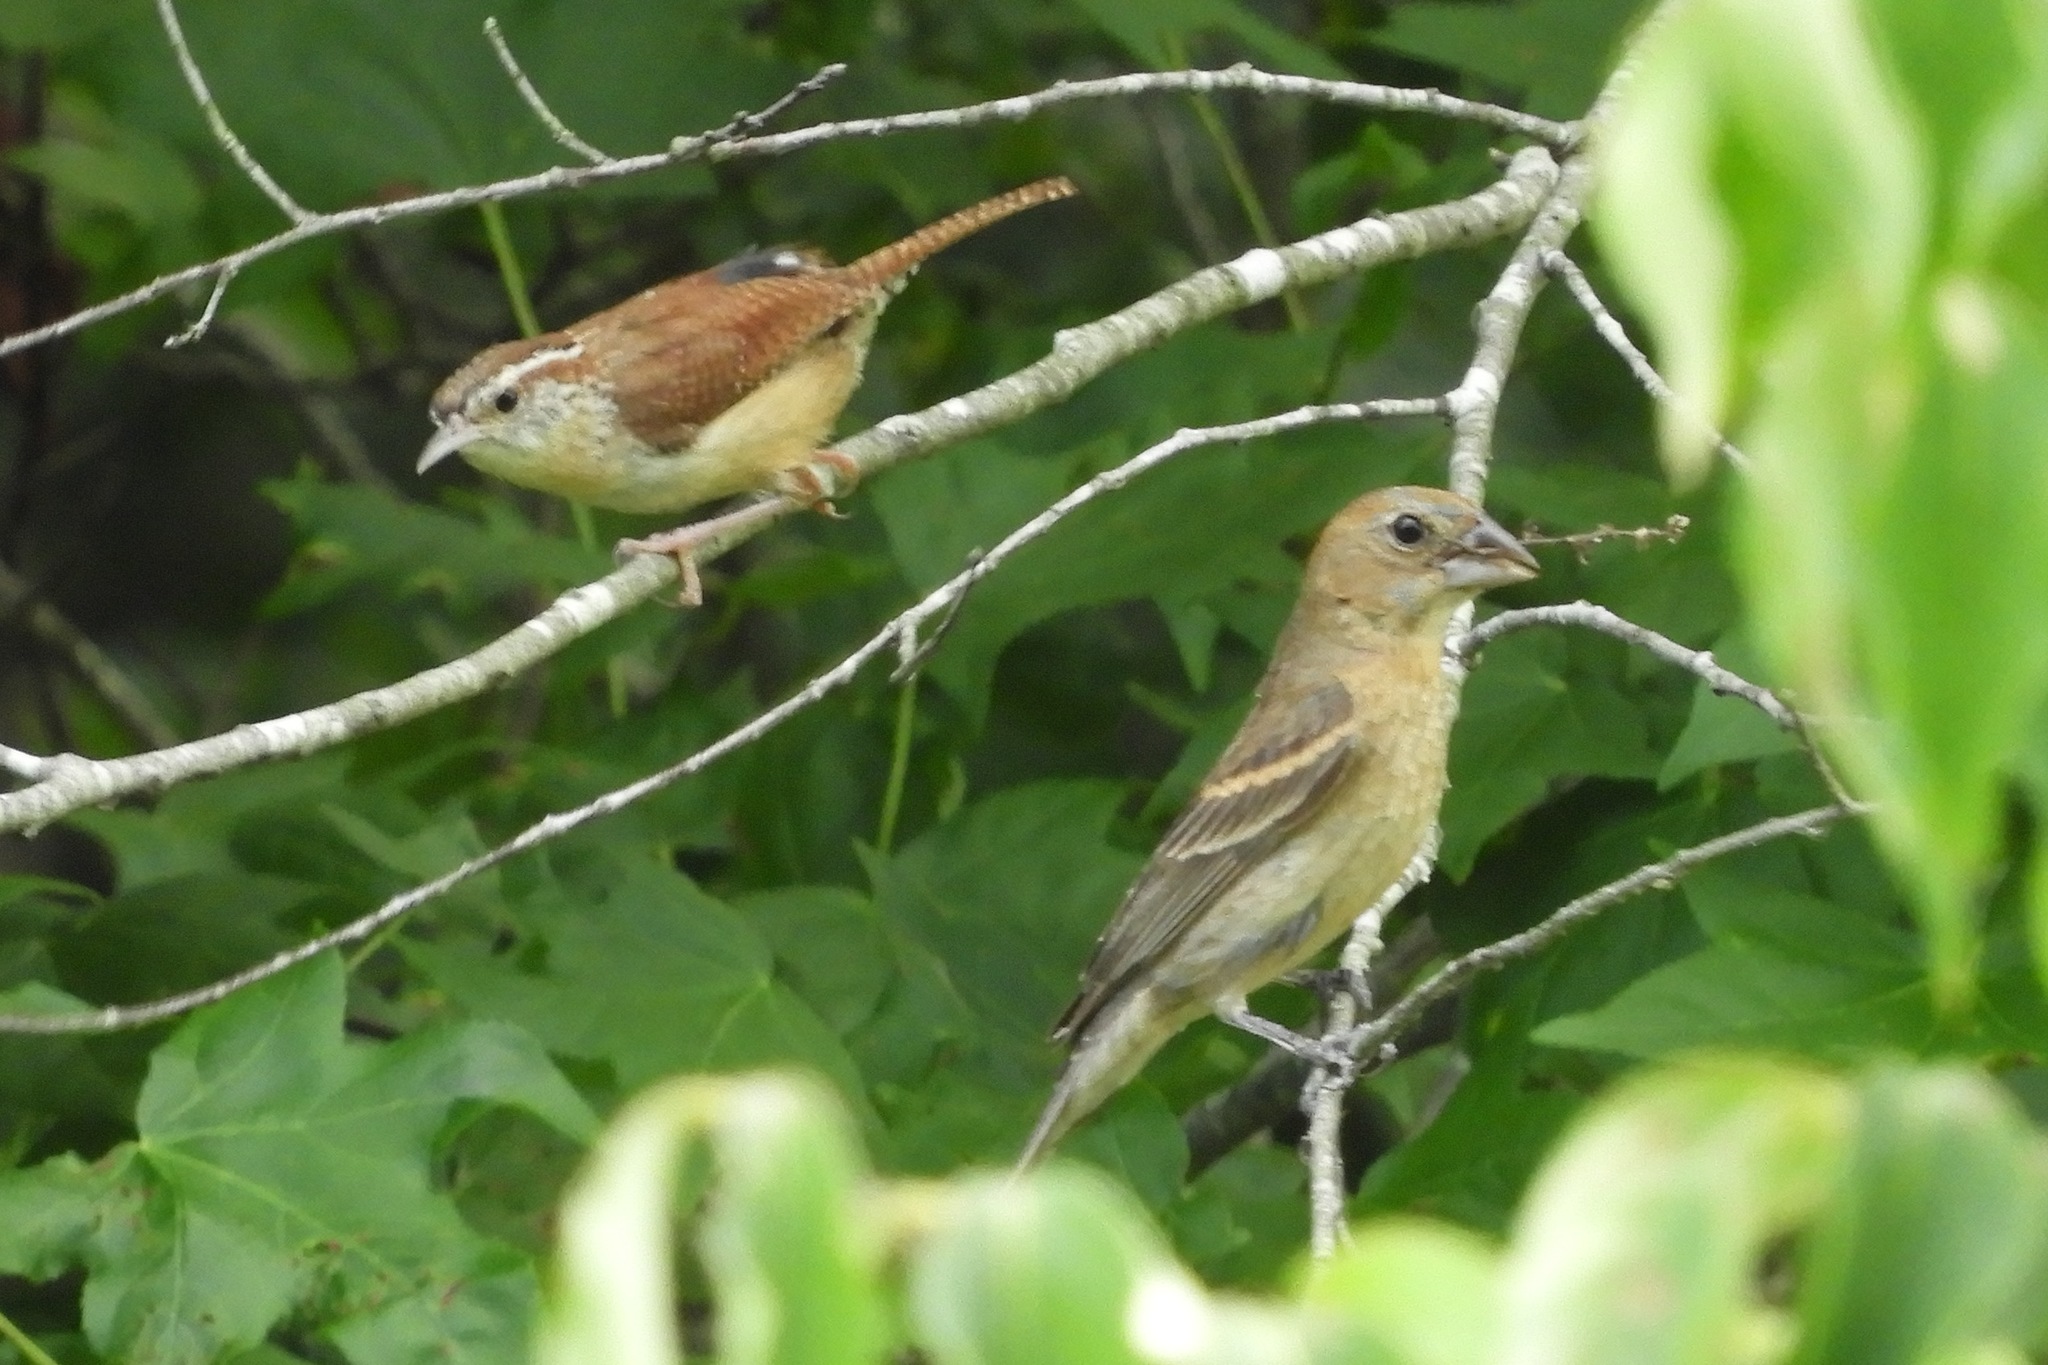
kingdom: Animalia
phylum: Chordata
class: Aves
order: Passeriformes
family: Troglodytidae
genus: Thryothorus
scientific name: Thryothorus ludovicianus
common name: Carolina wren
